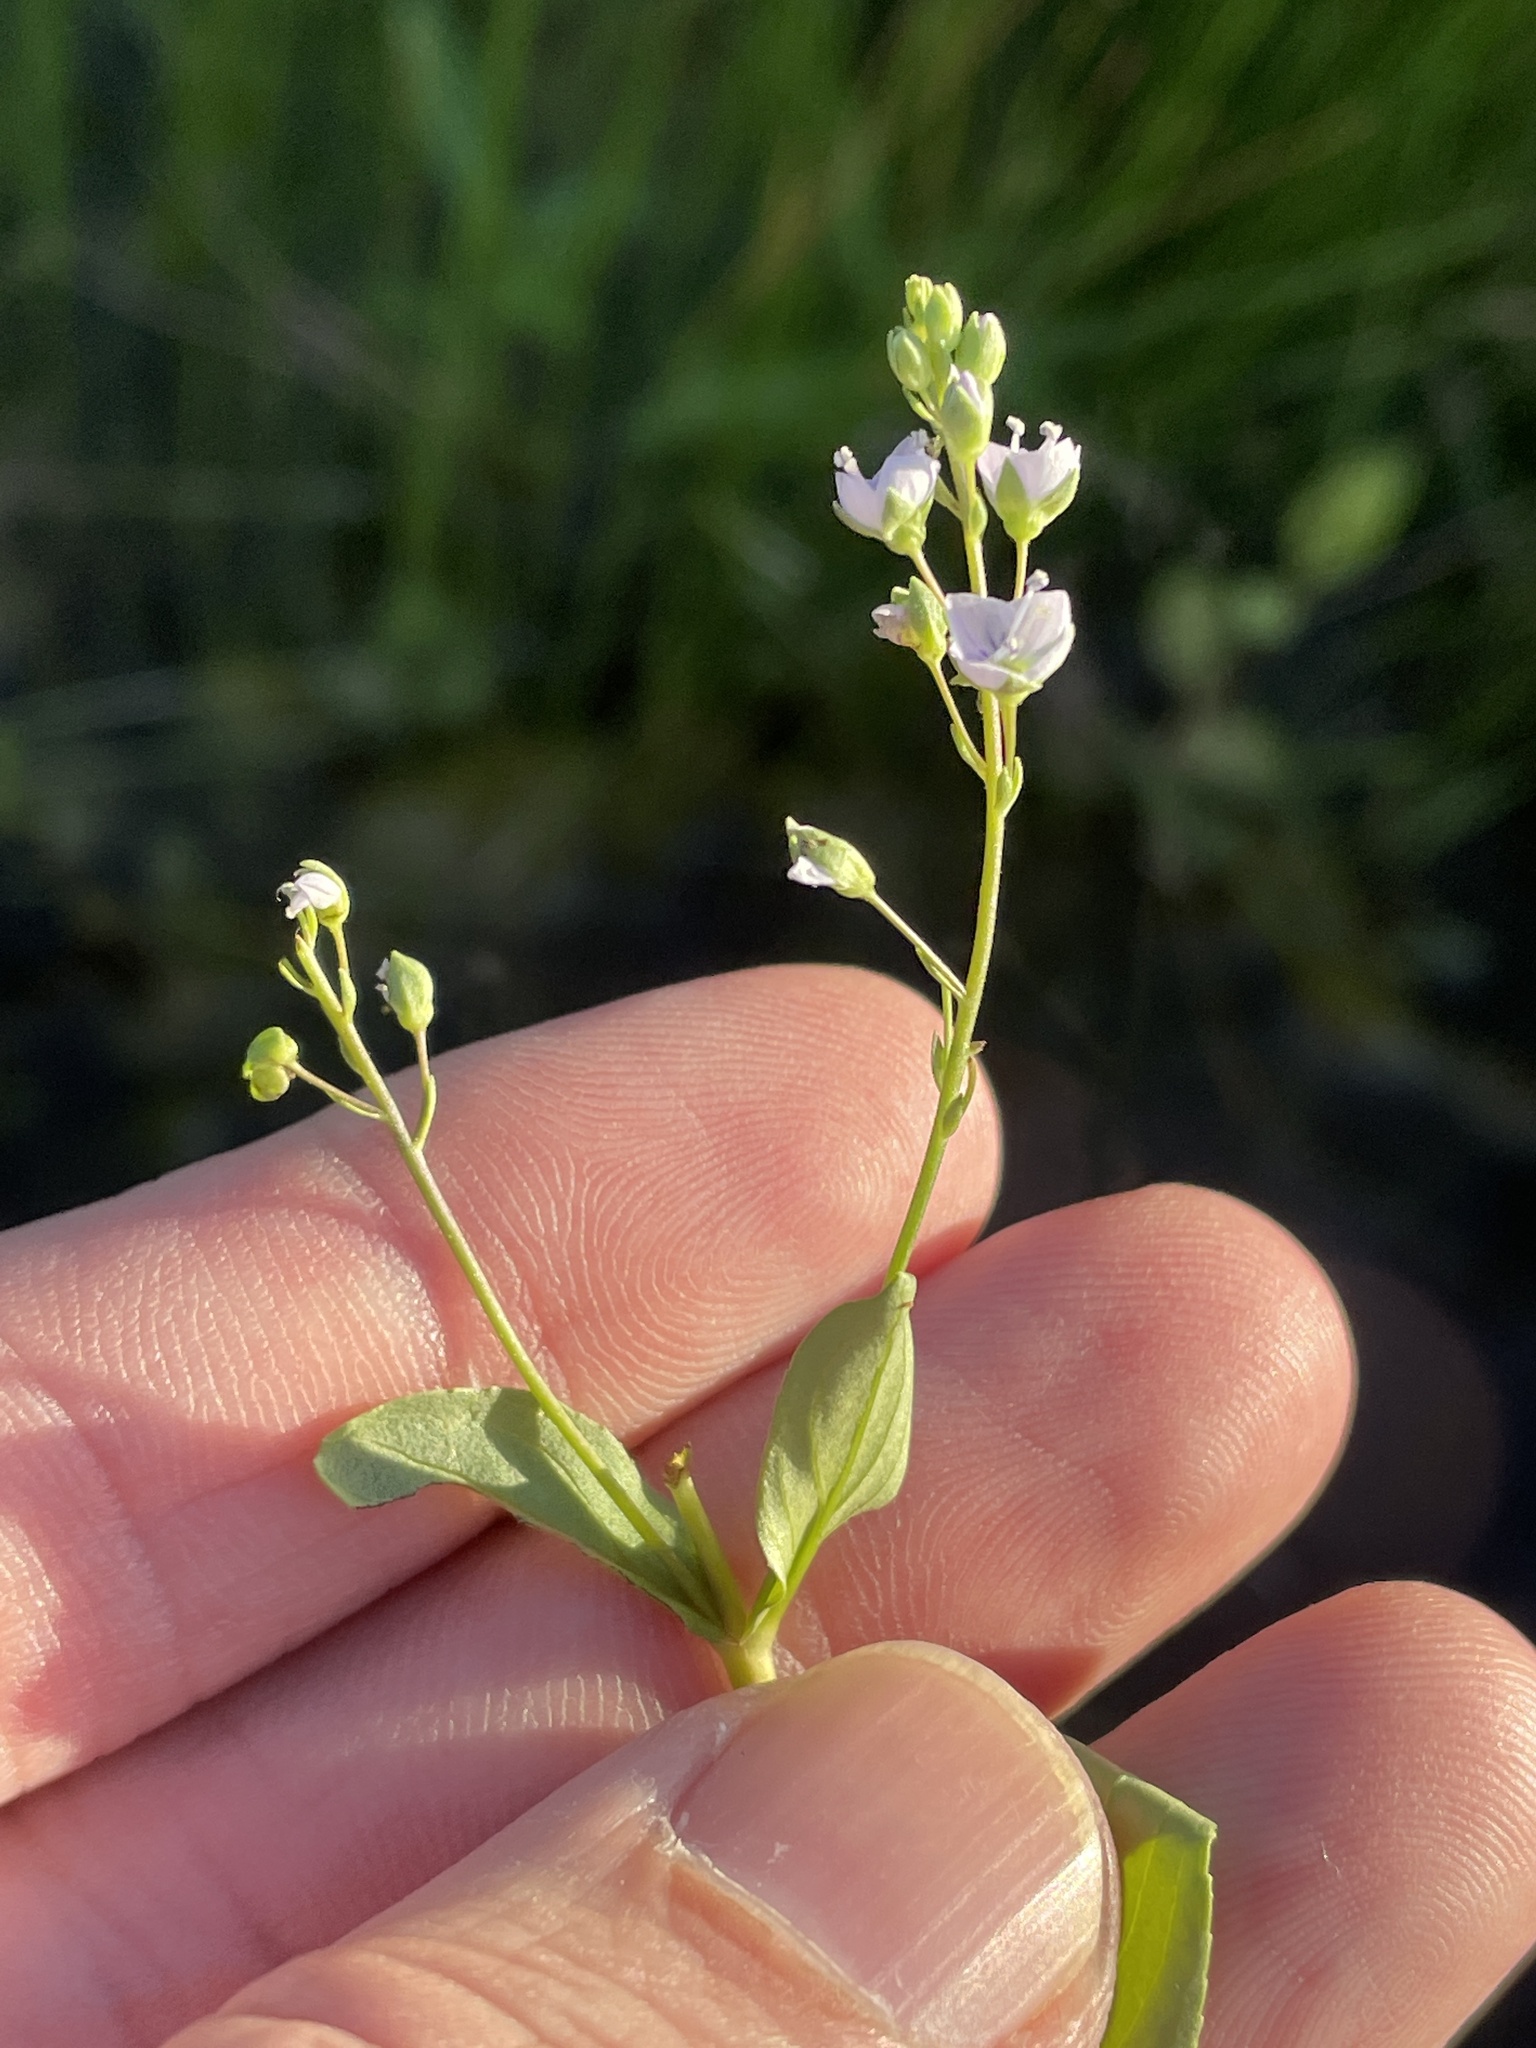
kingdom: Plantae
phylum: Tracheophyta
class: Magnoliopsida
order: Lamiales
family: Plantaginaceae
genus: Veronica
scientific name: Veronica anagallis-aquatica
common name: Water speedwell
